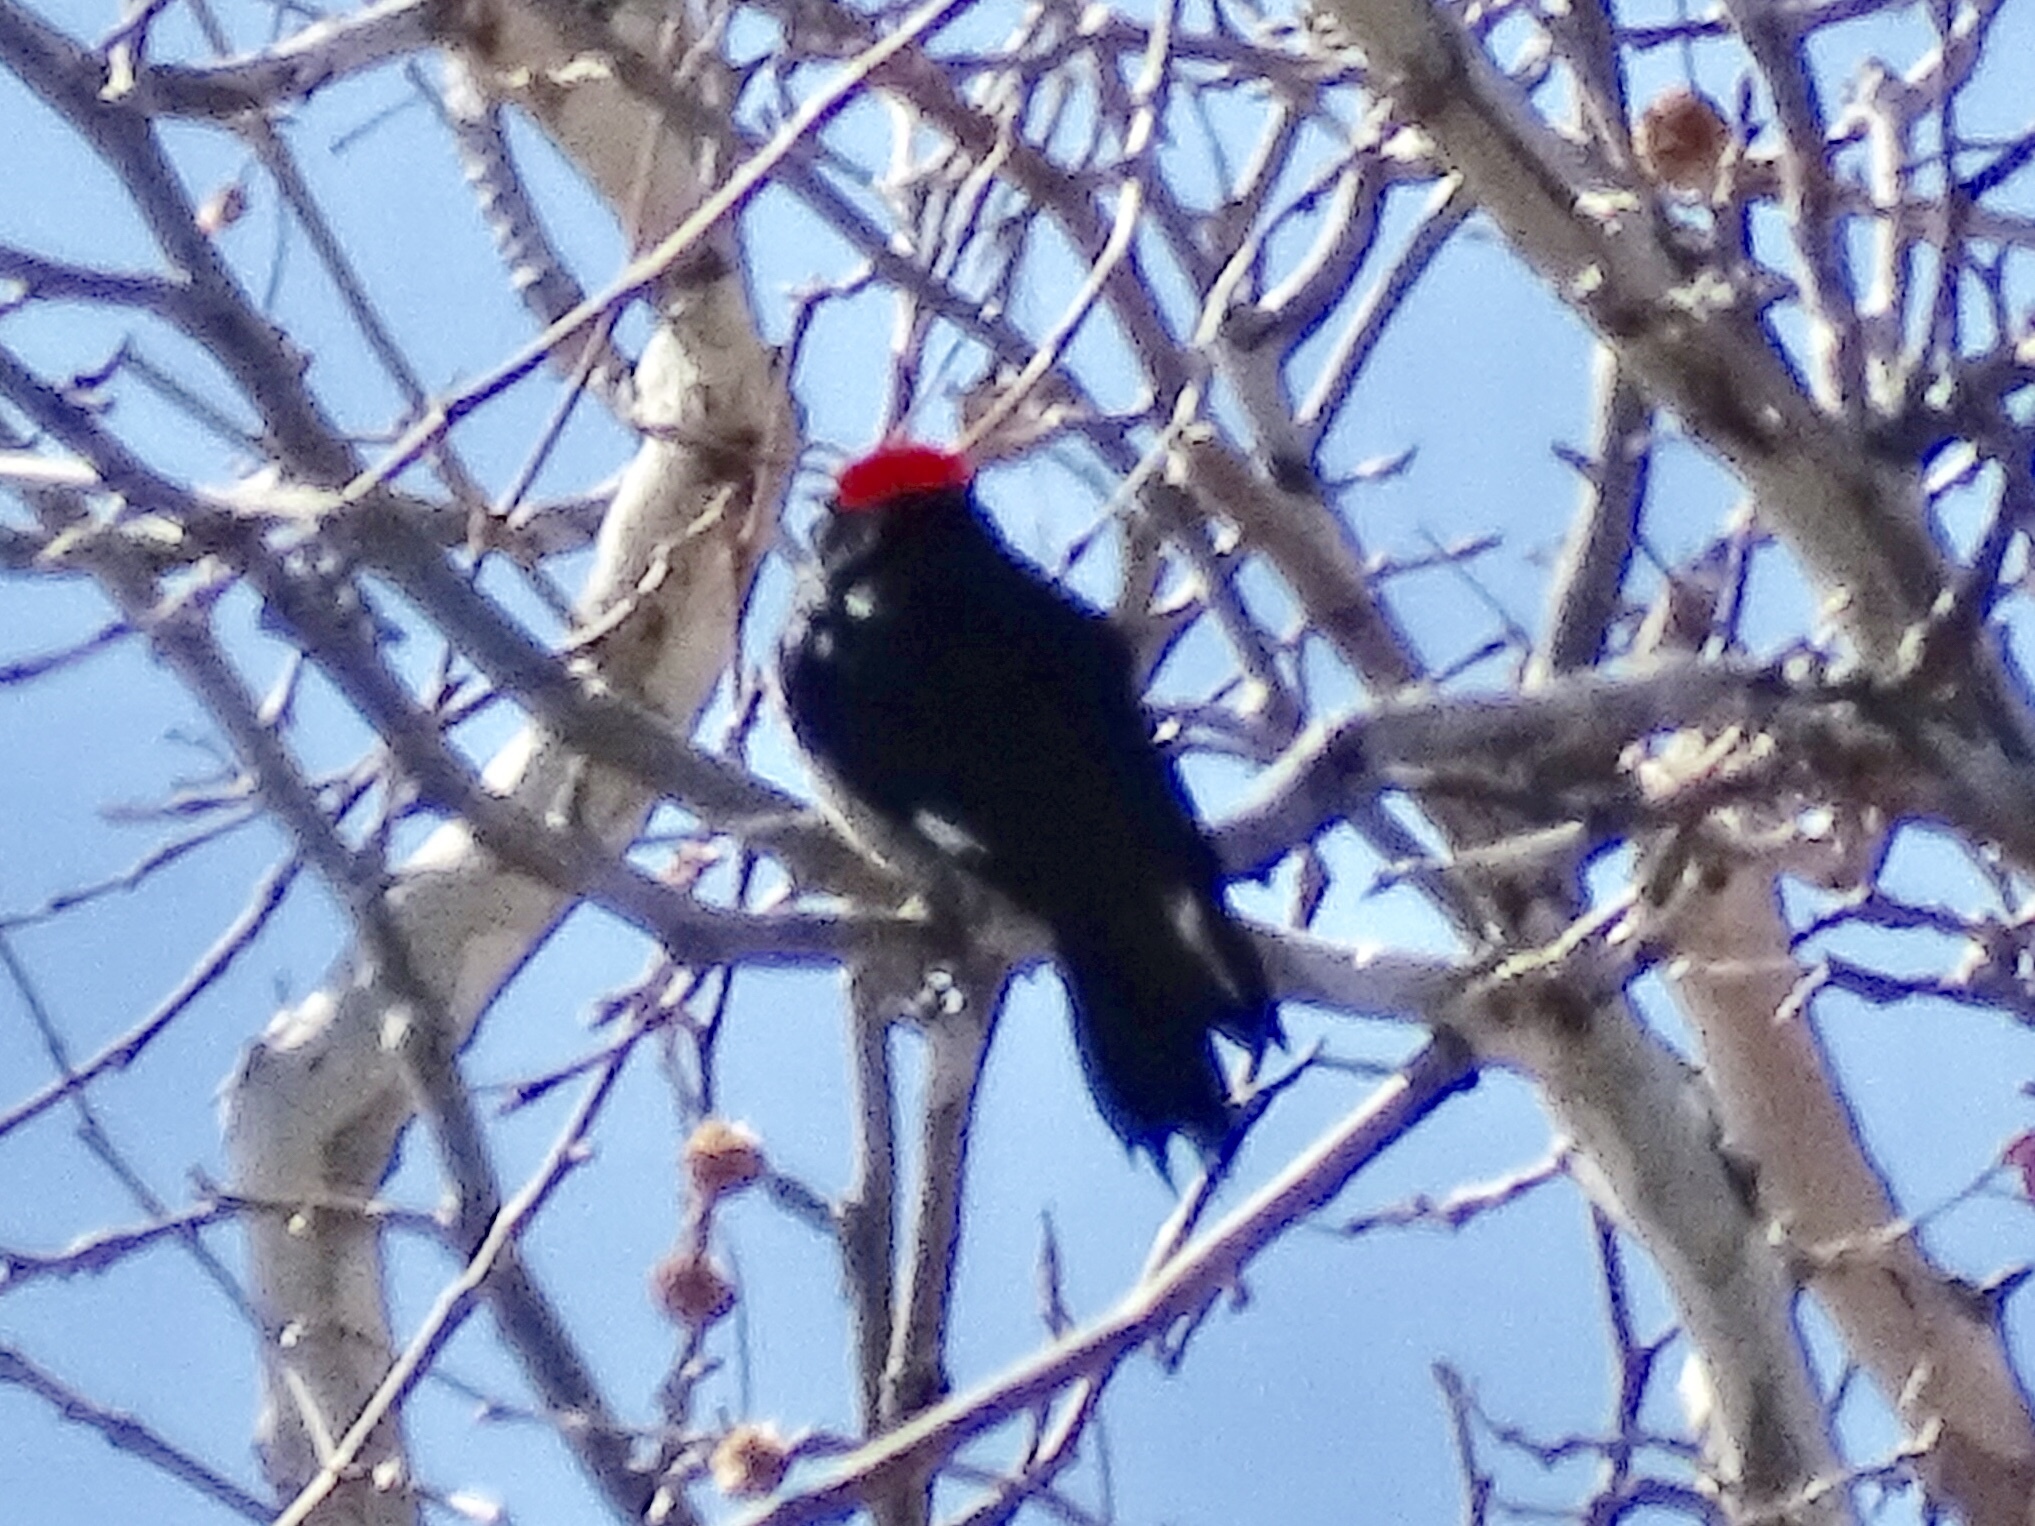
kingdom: Animalia
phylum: Chordata
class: Aves
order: Piciformes
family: Picidae
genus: Melanerpes
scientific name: Melanerpes formicivorus
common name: Acorn woodpecker
